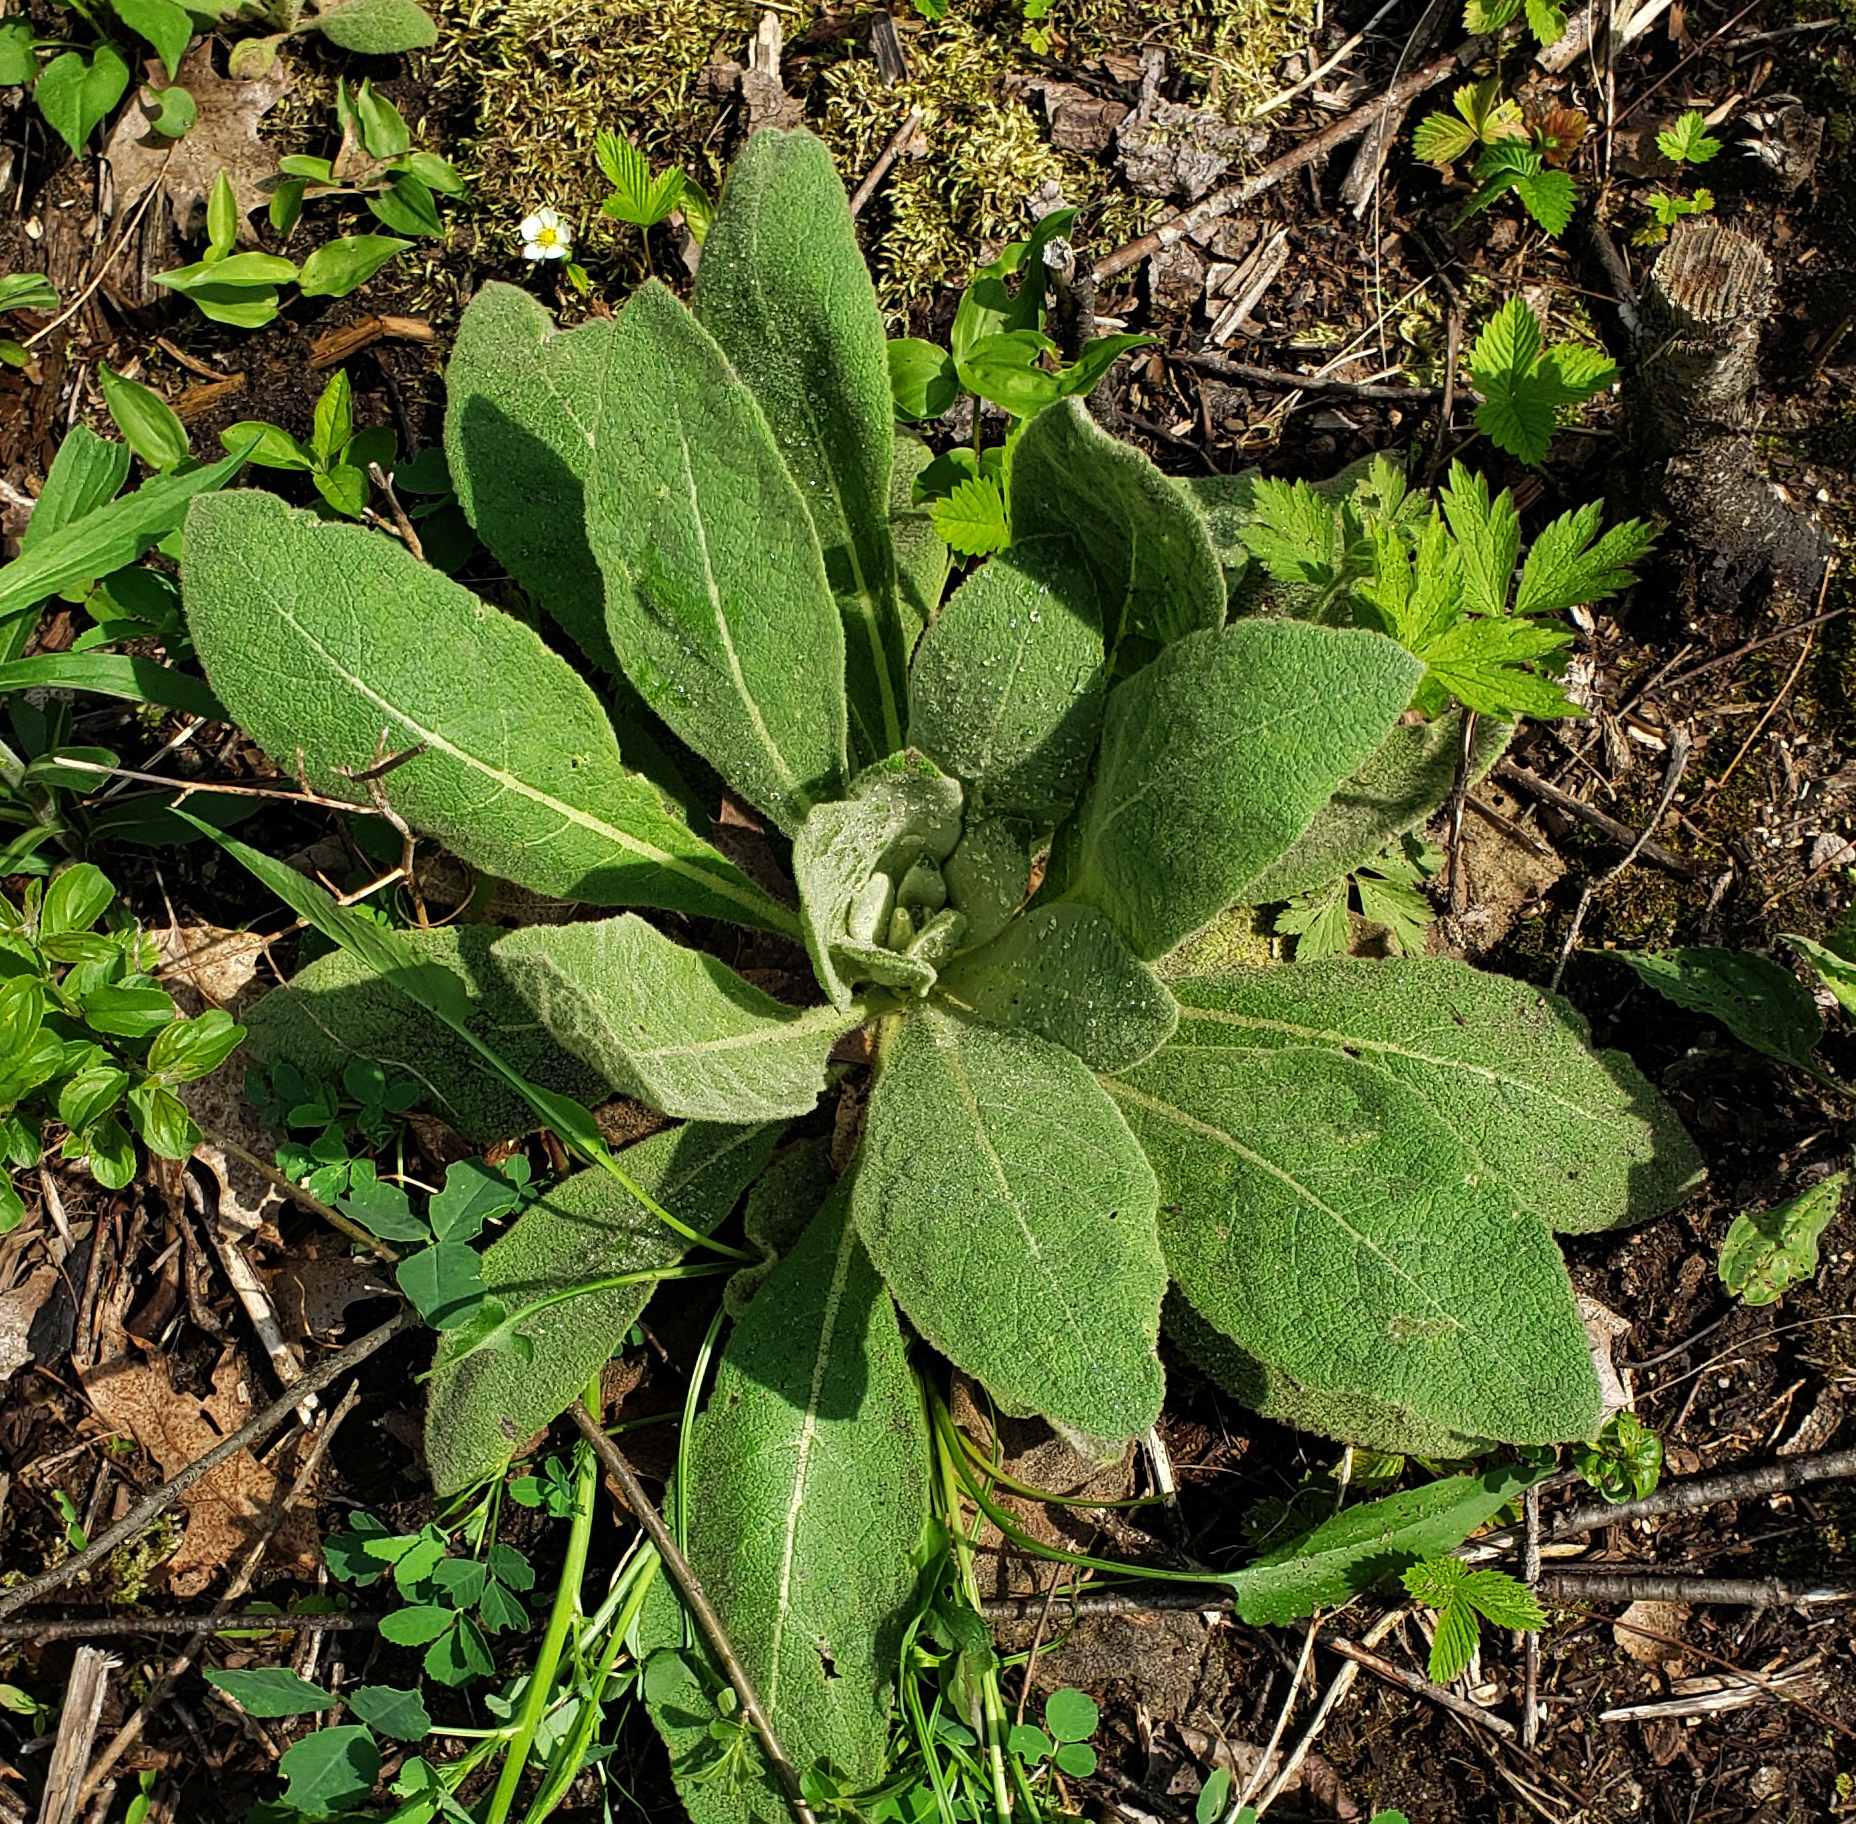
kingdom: Plantae
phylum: Tracheophyta
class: Magnoliopsida
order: Lamiales
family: Scrophulariaceae
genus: Verbascum
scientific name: Verbascum thapsus
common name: Common mullein
